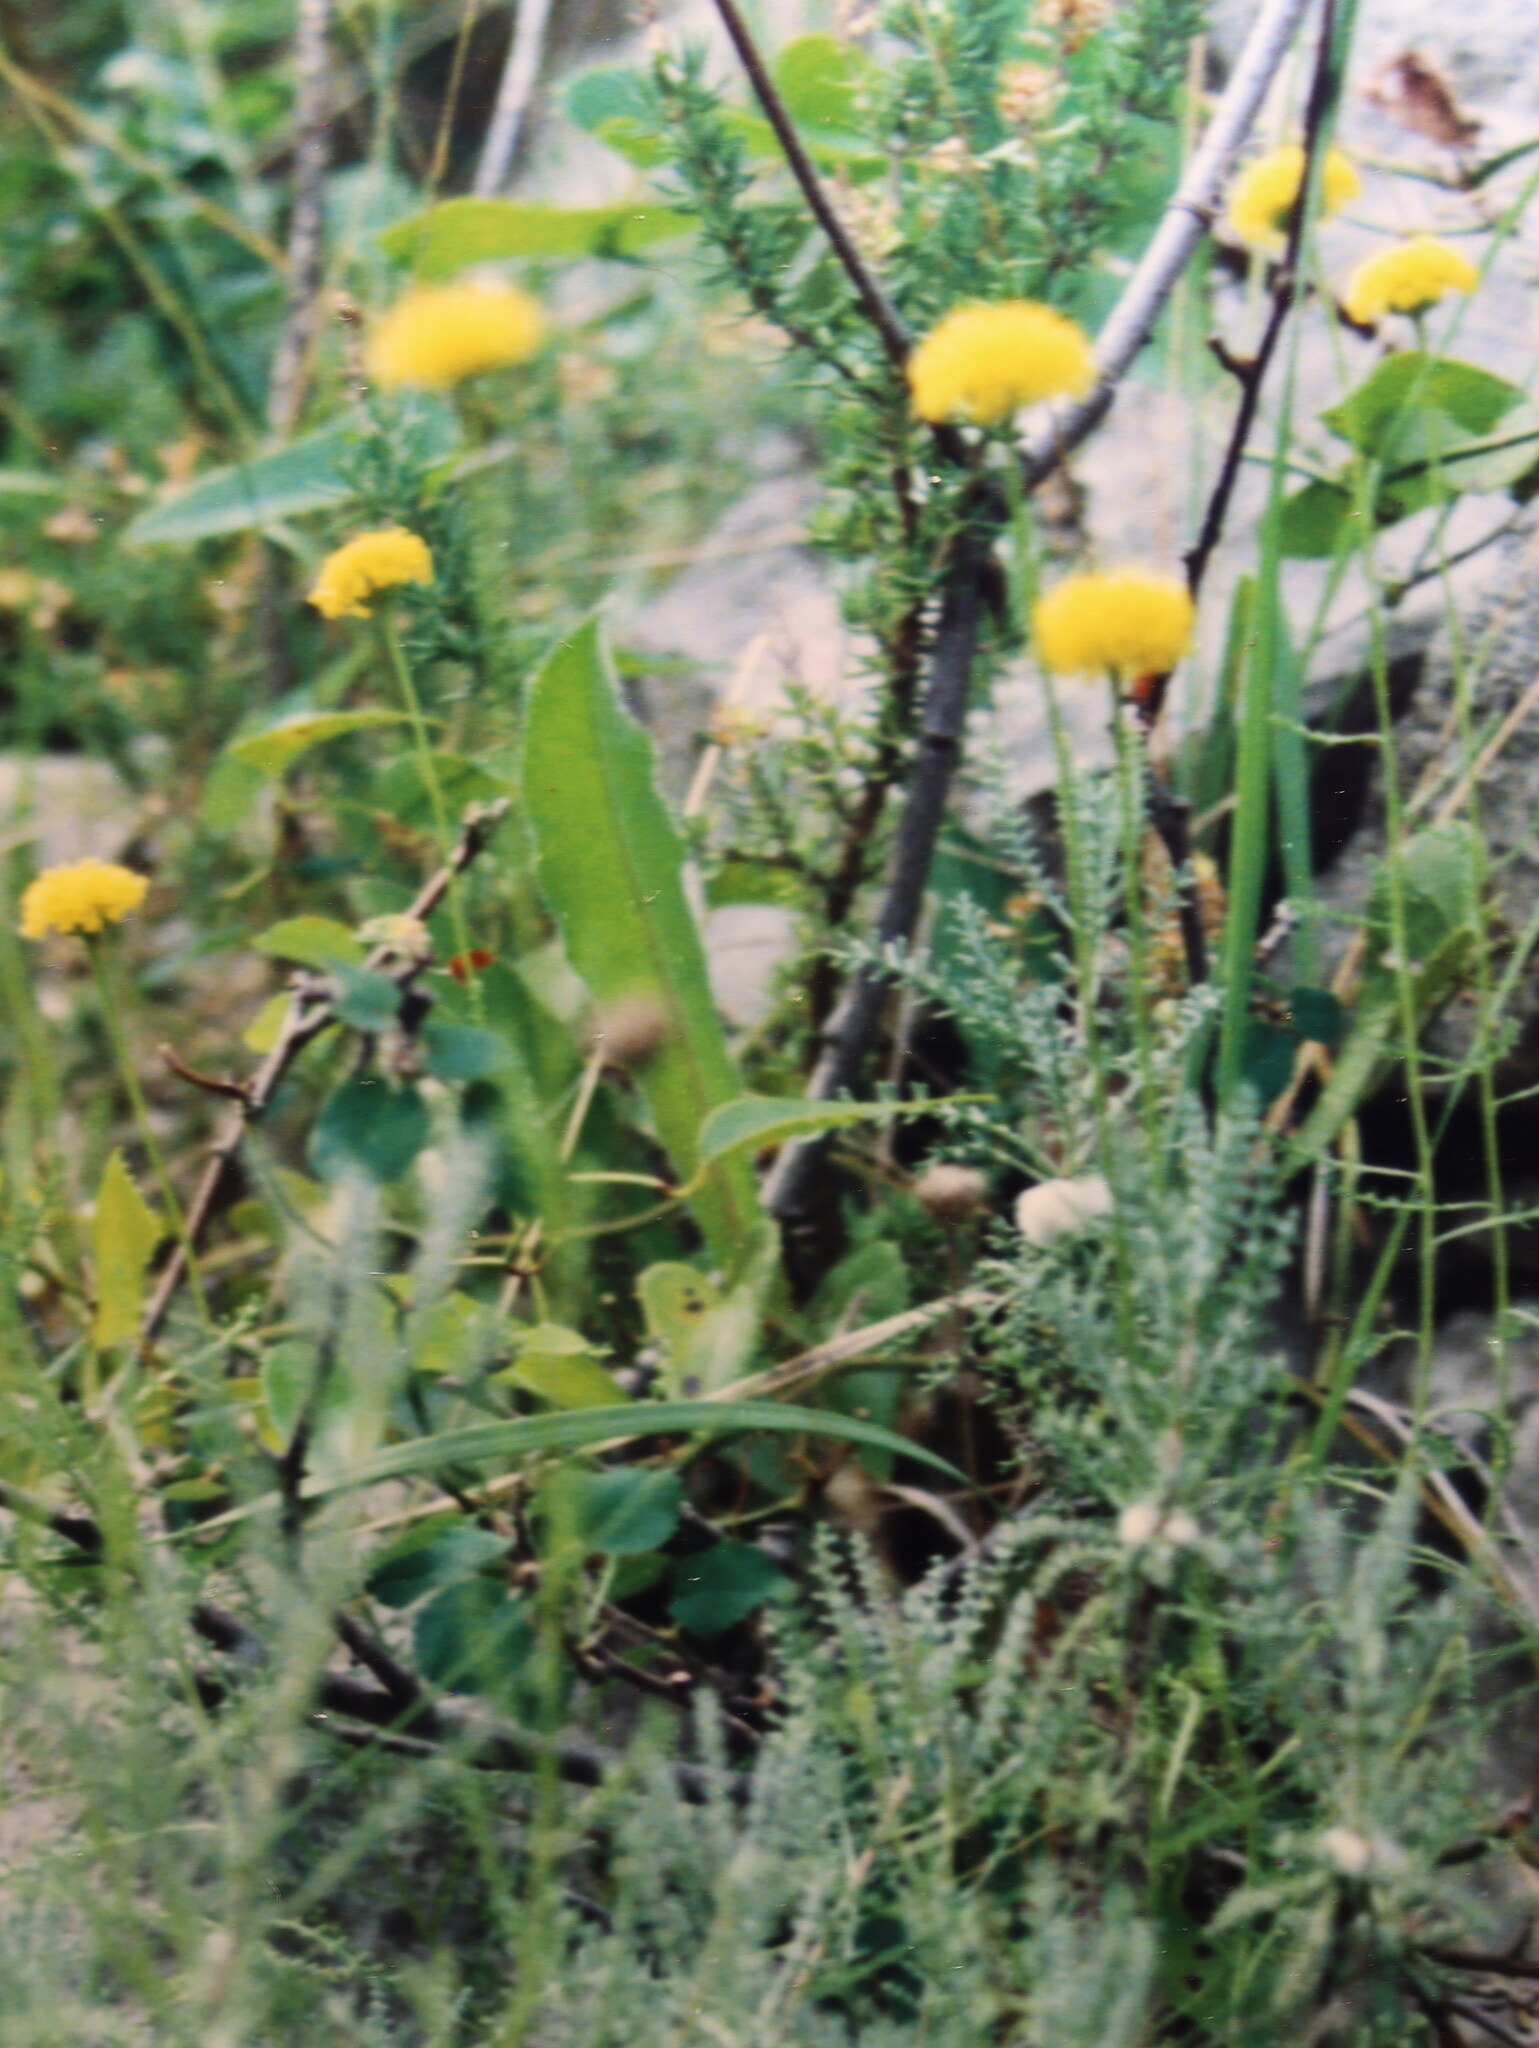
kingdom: Animalia
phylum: Arthropoda
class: Insecta
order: Diptera
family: Cecidomyiidae
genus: Rhopalomyia
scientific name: Rhopalomyia santolinae
